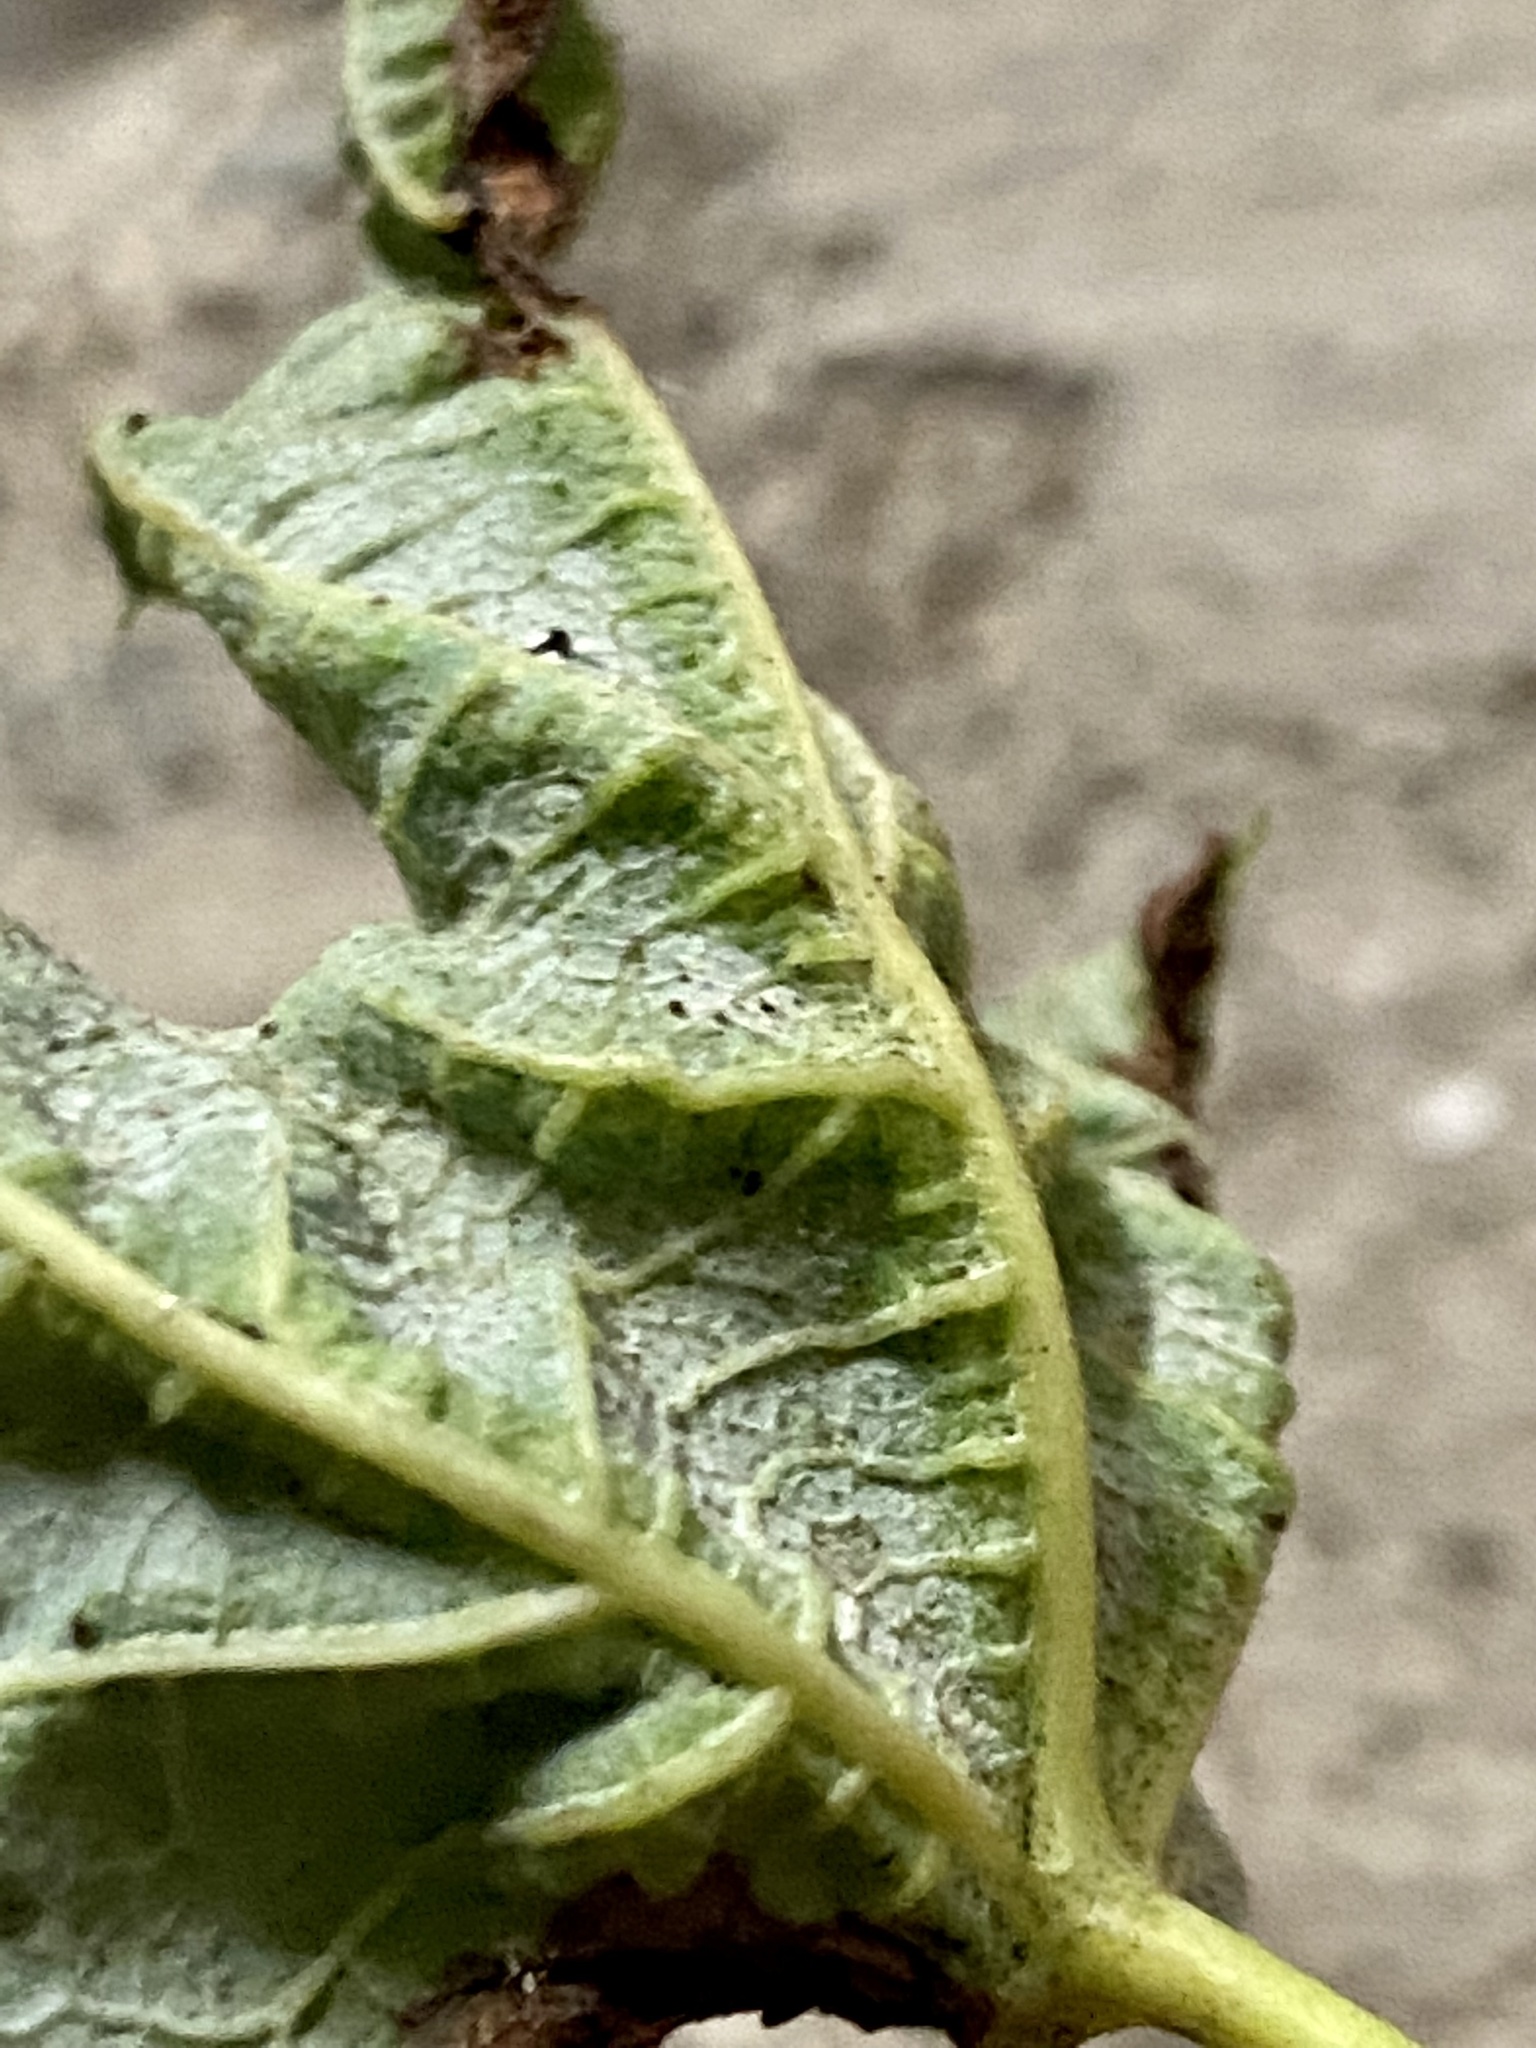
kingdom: Animalia
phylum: Arthropoda
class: Insecta
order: Diptera
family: Cecidomyiidae
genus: Dasineura
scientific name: Dasineura aceris
